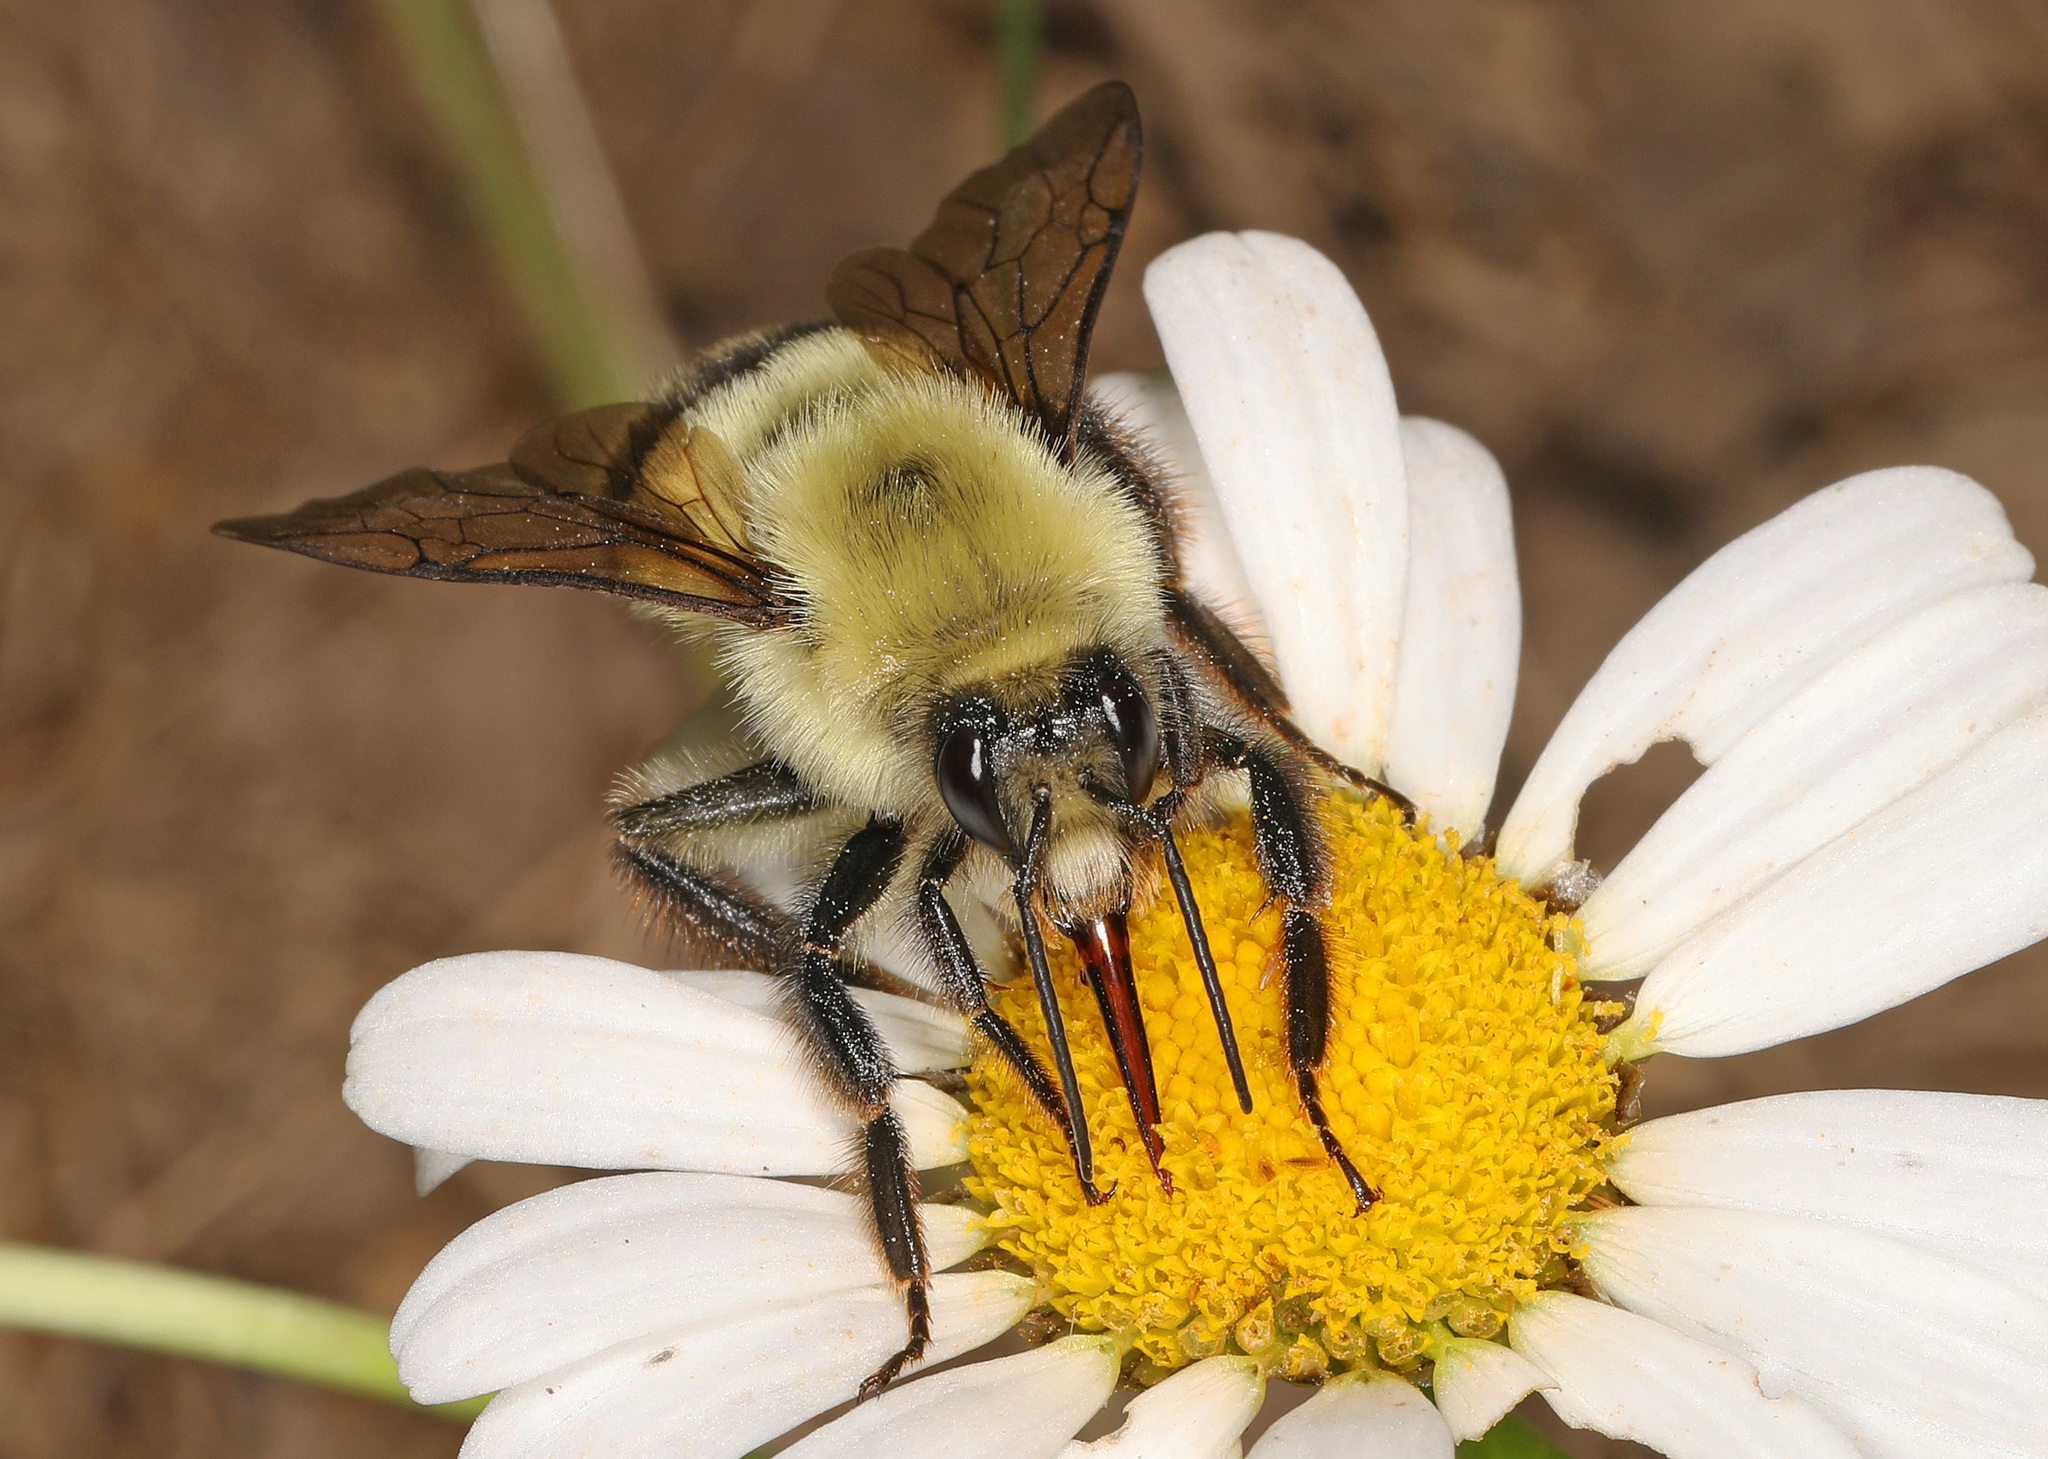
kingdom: Animalia
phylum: Arthropoda
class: Insecta
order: Hymenoptera
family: Apidae
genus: Bombus
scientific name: Bombus bimaculatus
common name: Two-spotted bumble bee
